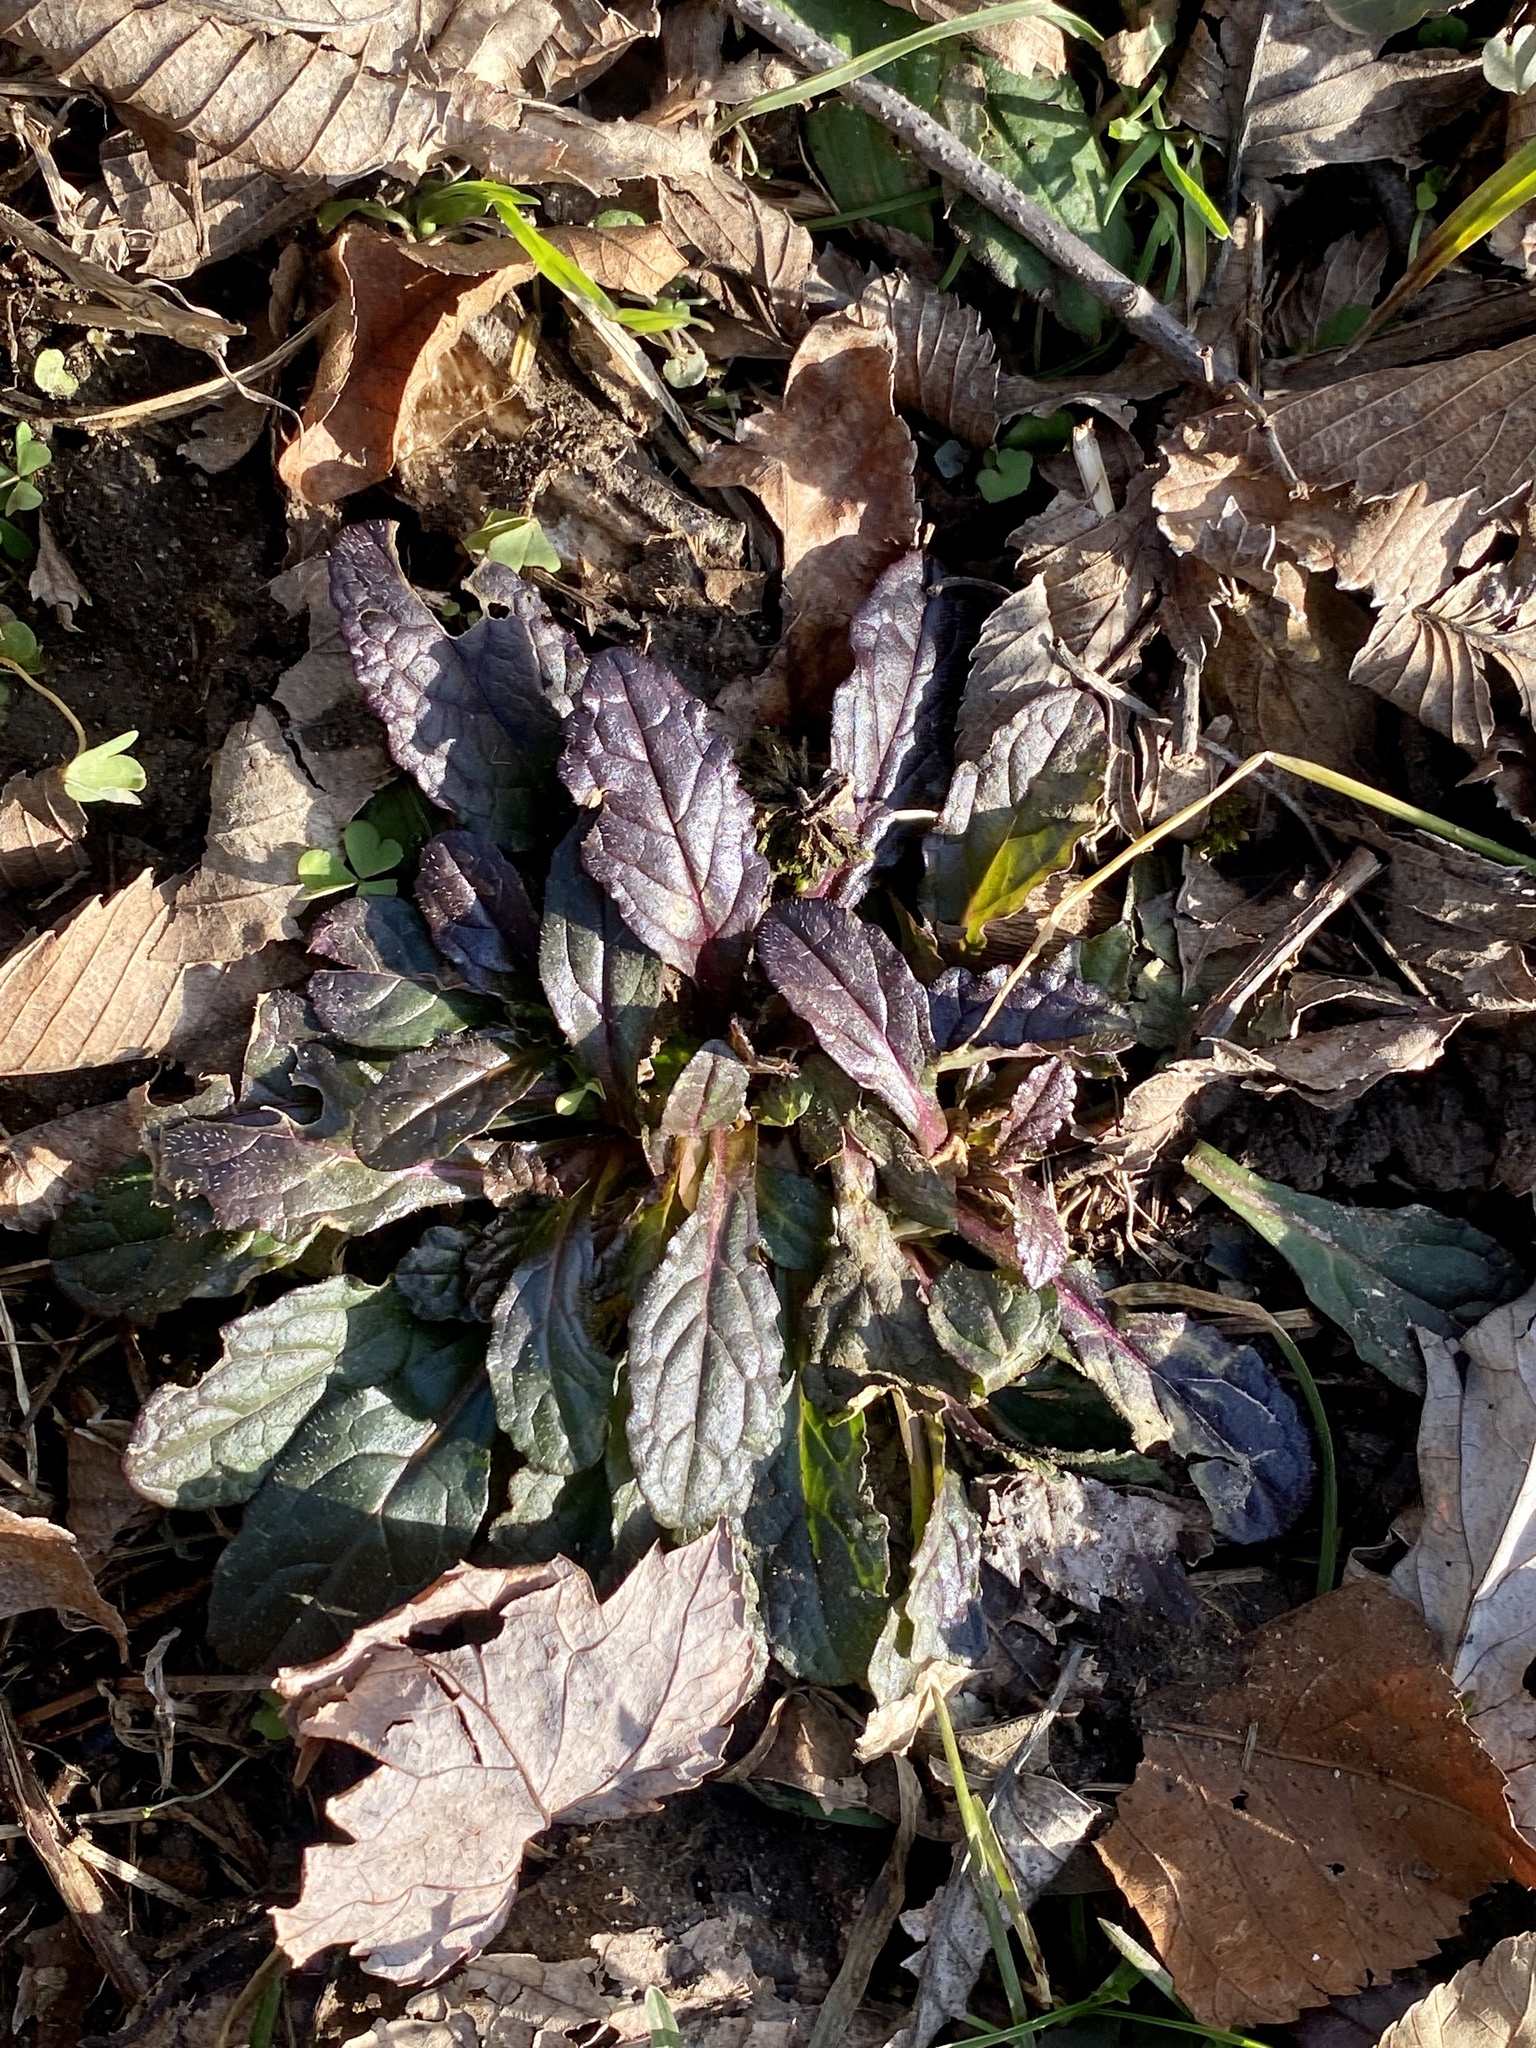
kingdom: Plantae
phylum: Tracheophyta
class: Magnoliopsida
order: Lamiales
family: Lamiaceae
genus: Ajuga
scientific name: Ajuga reptans
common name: Bugle
